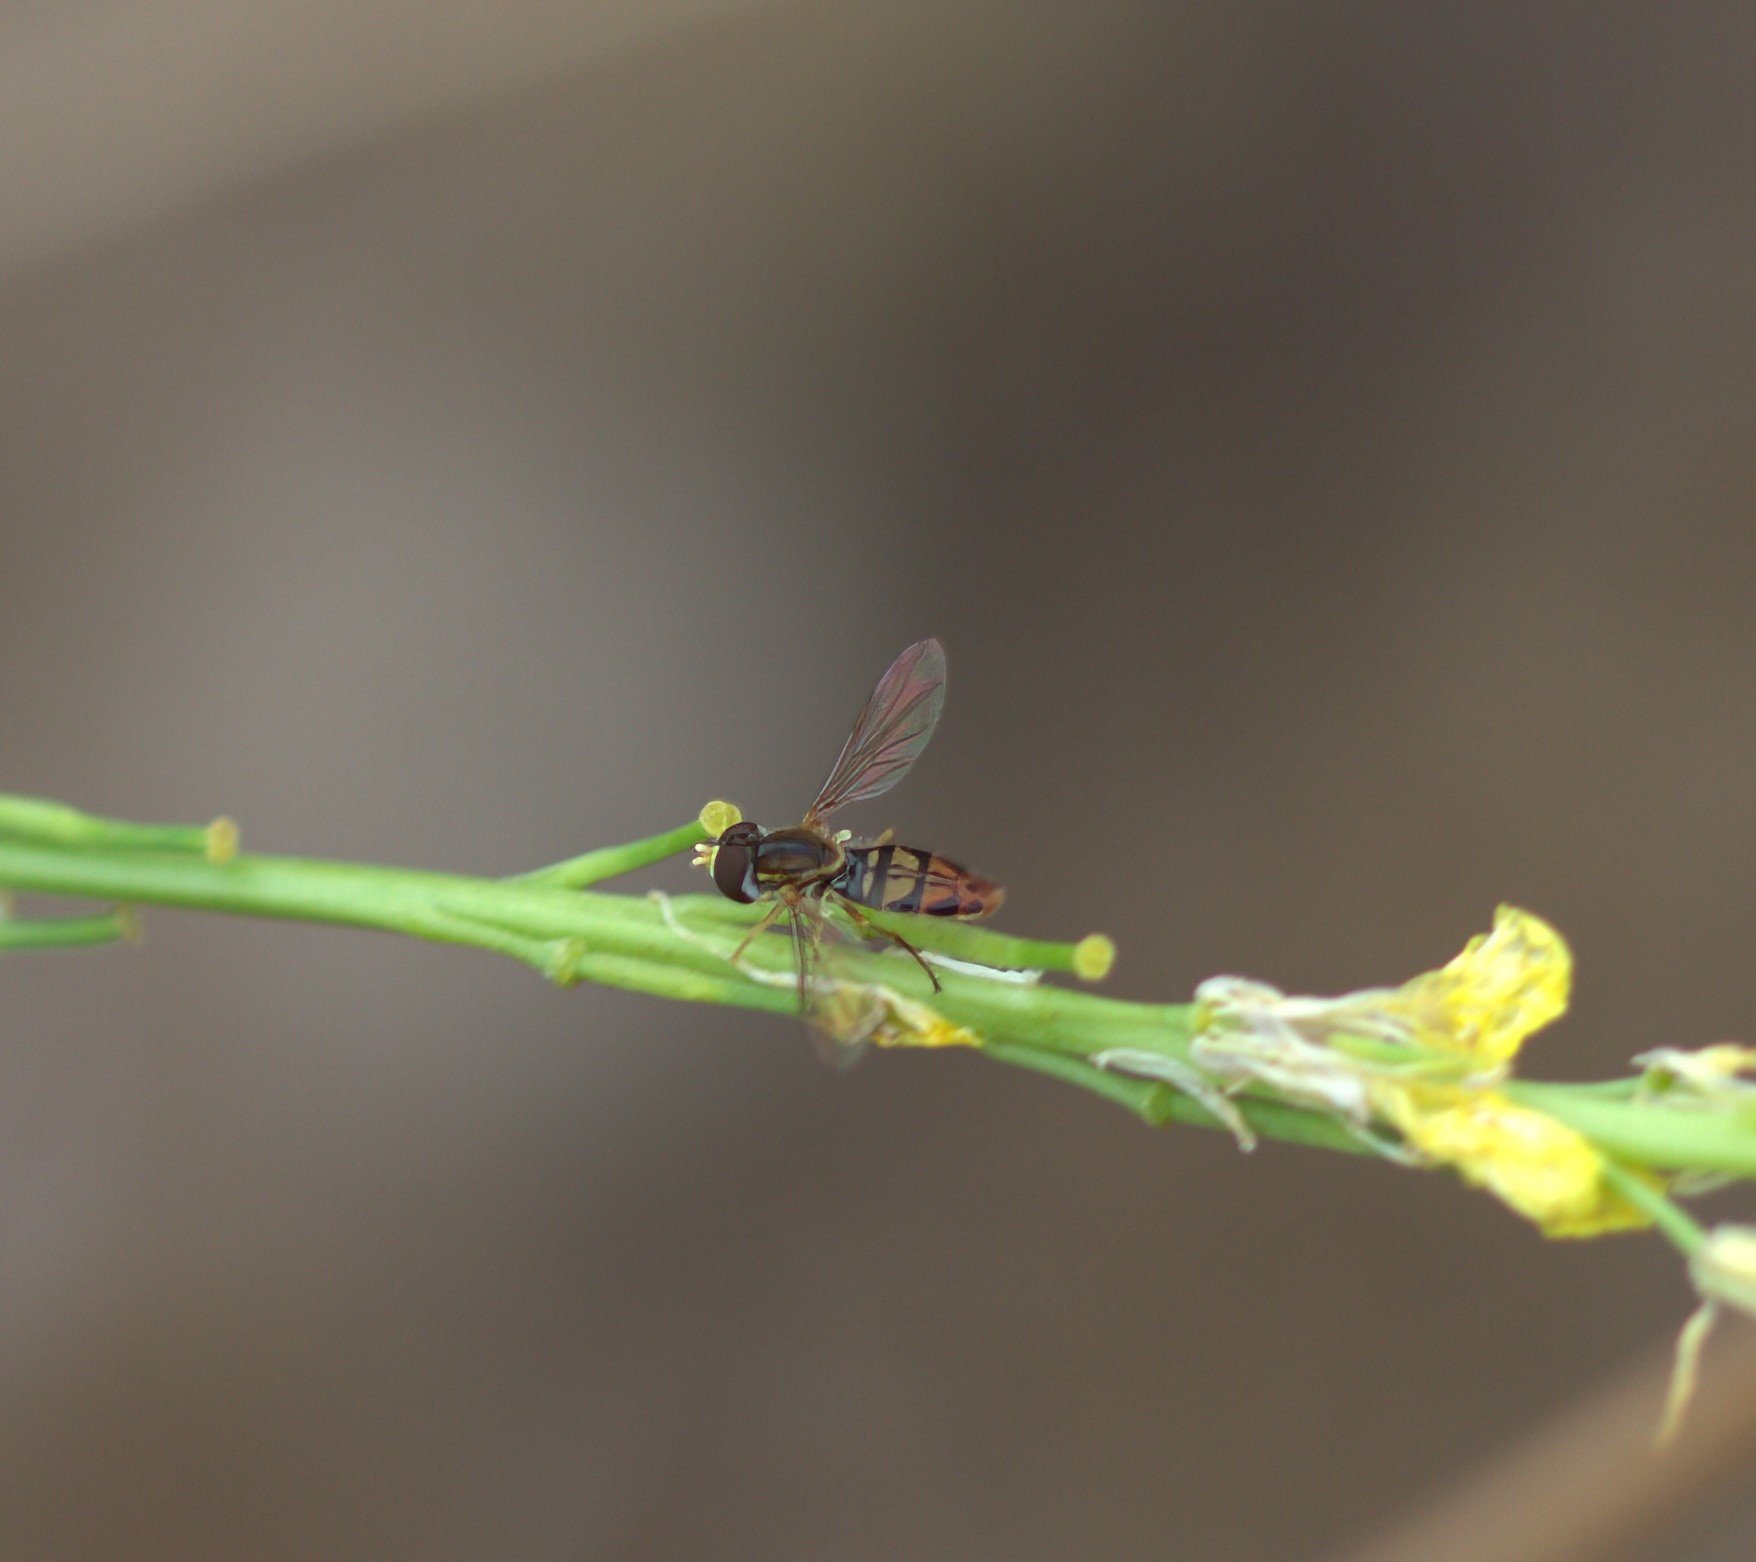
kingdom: Animalia
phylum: Arthropoda
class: Insecta
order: Diptera
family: Syrphidae
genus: Toxomerus
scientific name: Toxomerus marginatus
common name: Syrphid fly
